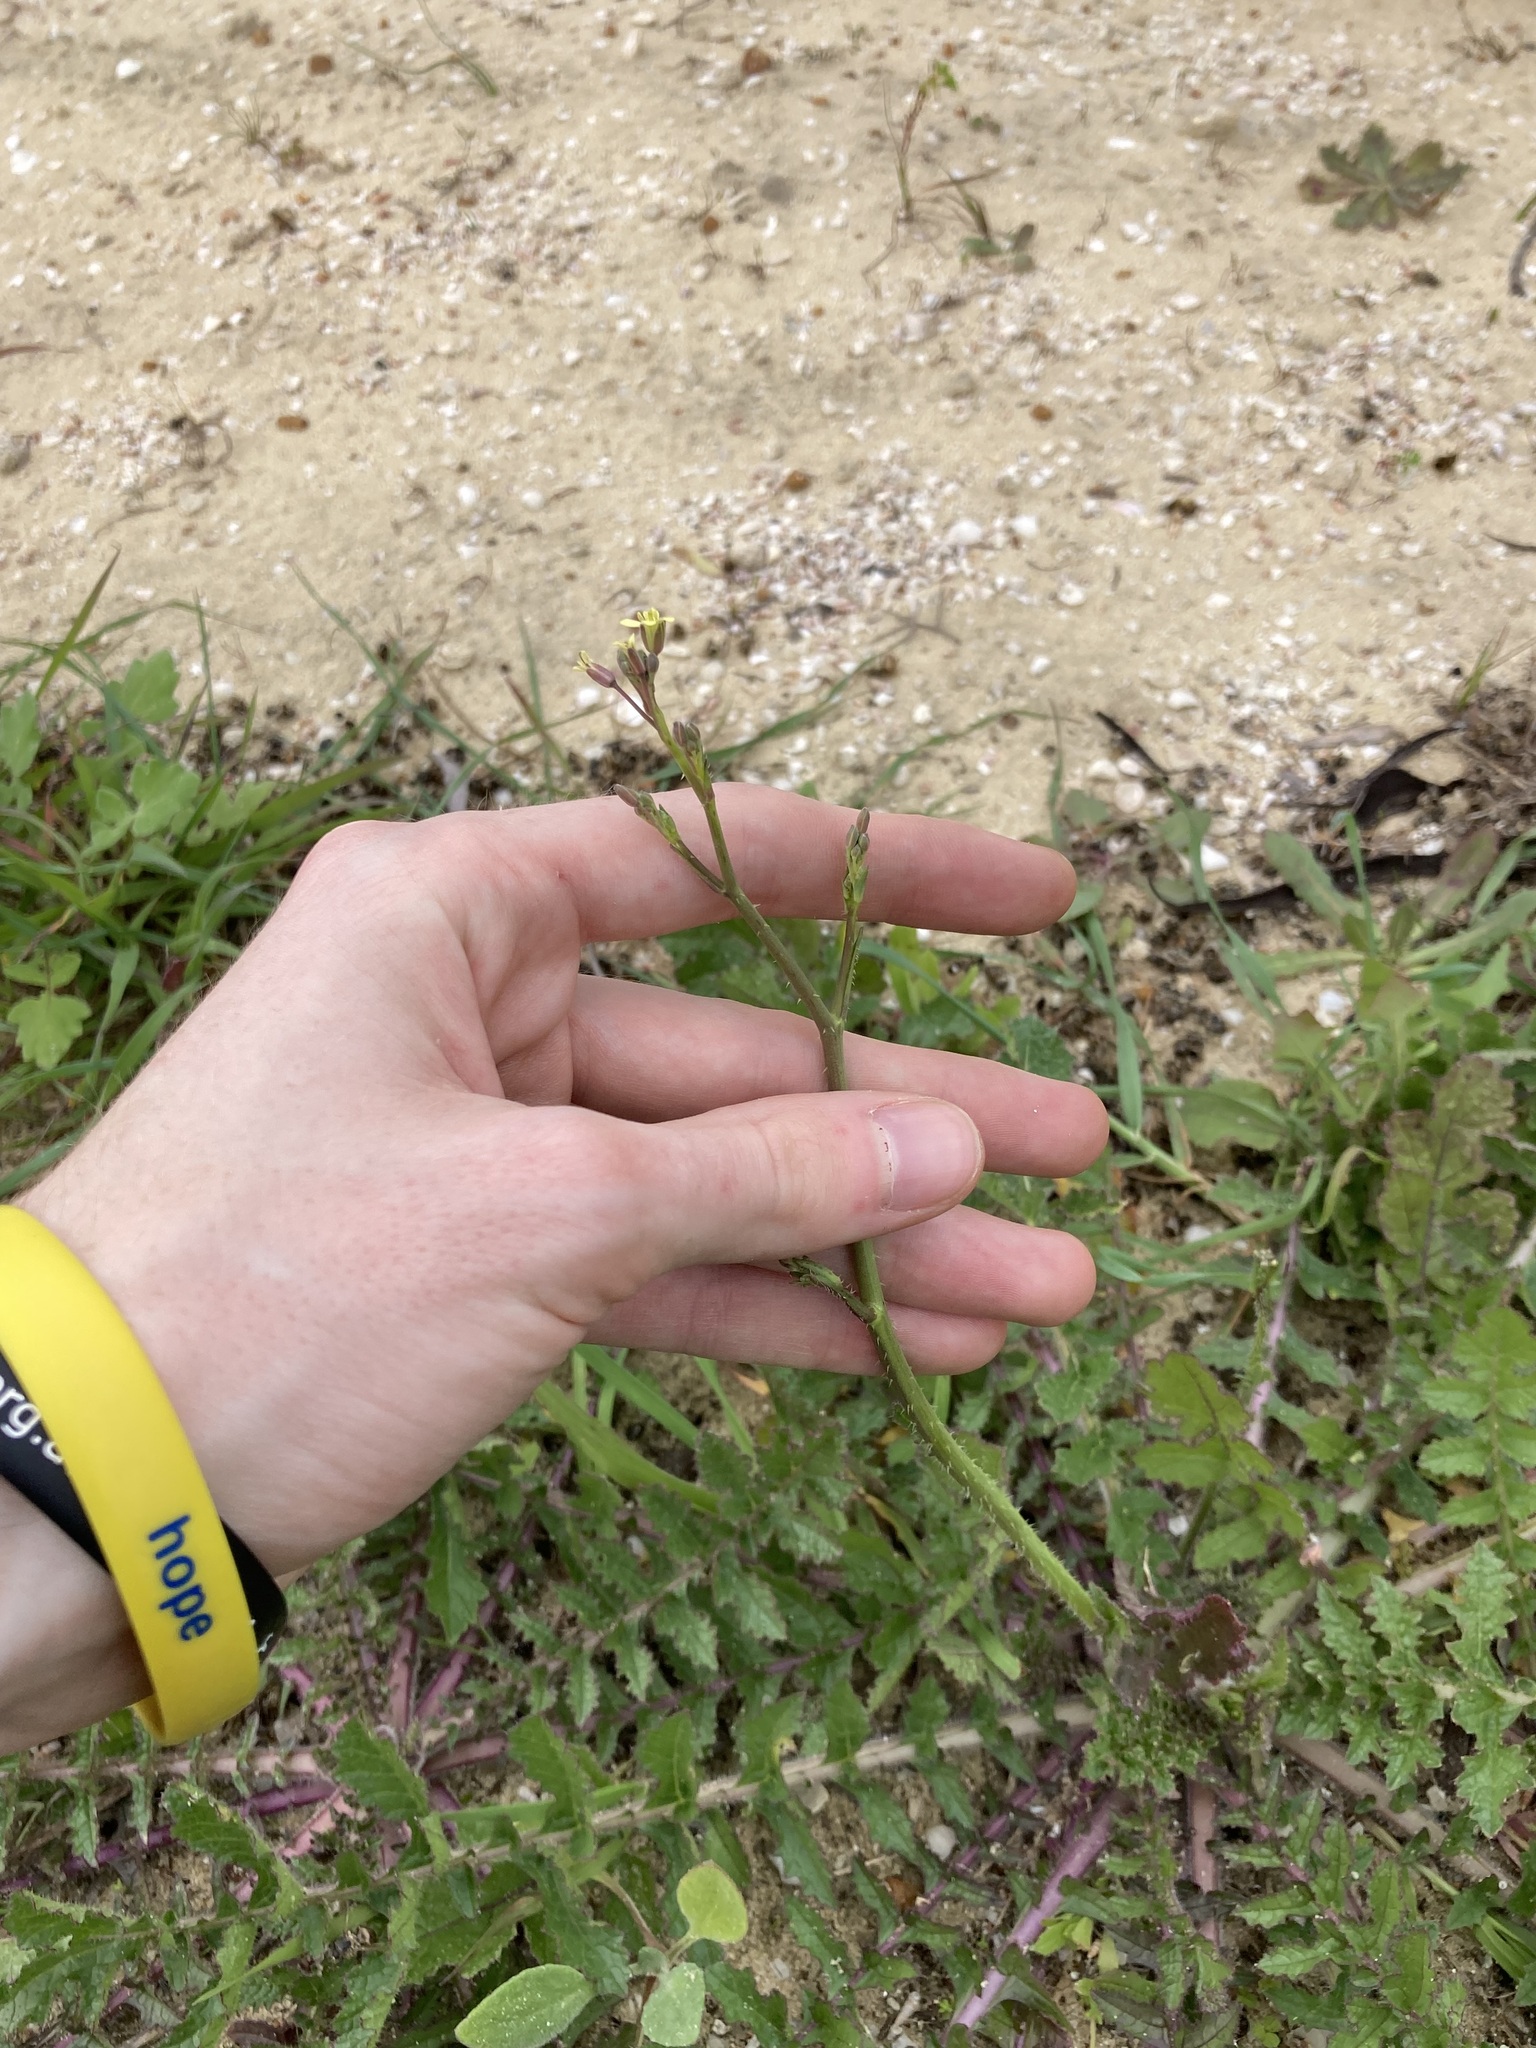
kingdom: Plantae
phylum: Tracheophyta
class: Magnoliopsida
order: Brassicales
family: Brassicaceae
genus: Brassica
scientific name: Brassica tournefortii
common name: Pale cabbage
